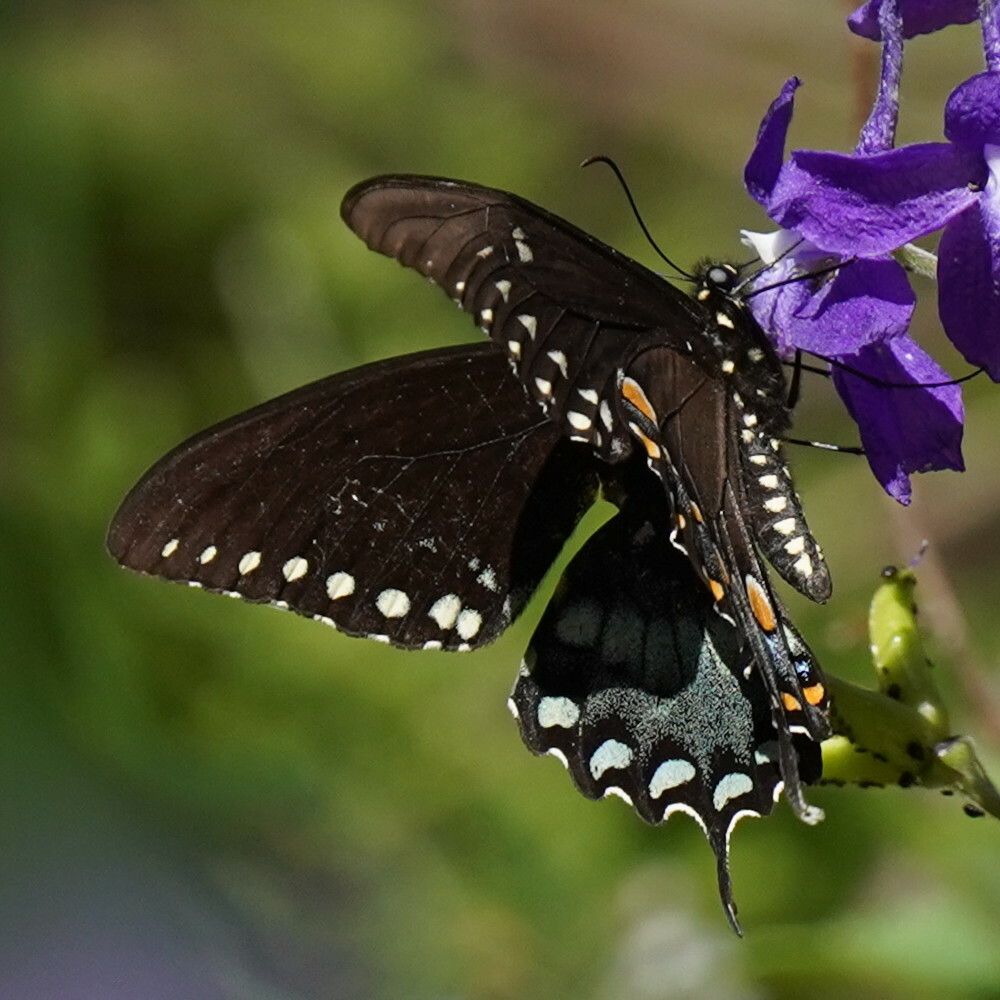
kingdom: Animalia
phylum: Arthropoda
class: Insecta
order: Lepidoptera
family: Papilionidae
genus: Papilio
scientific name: Papilio troilus
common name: Spicebush swallowtail
